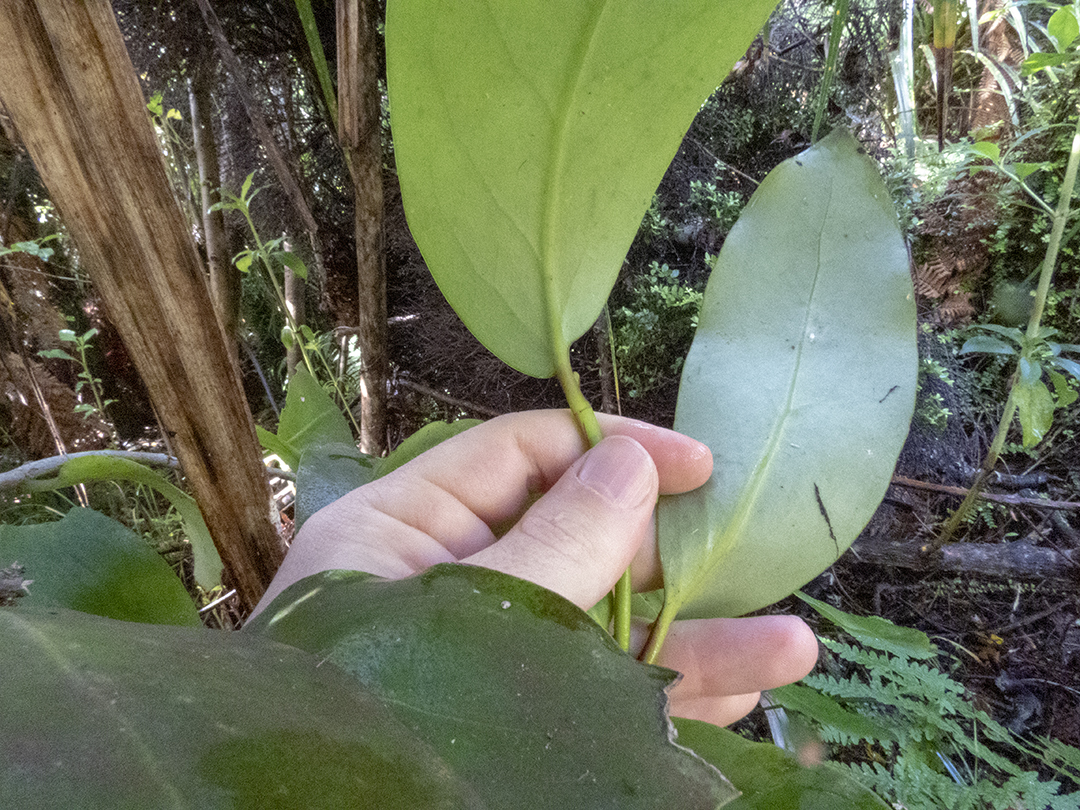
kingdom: Plantae
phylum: Tracheophyta
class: Magnoliopsida
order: Apiales
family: Griseliniaceae
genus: Griselinia
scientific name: Griselinia lucida
